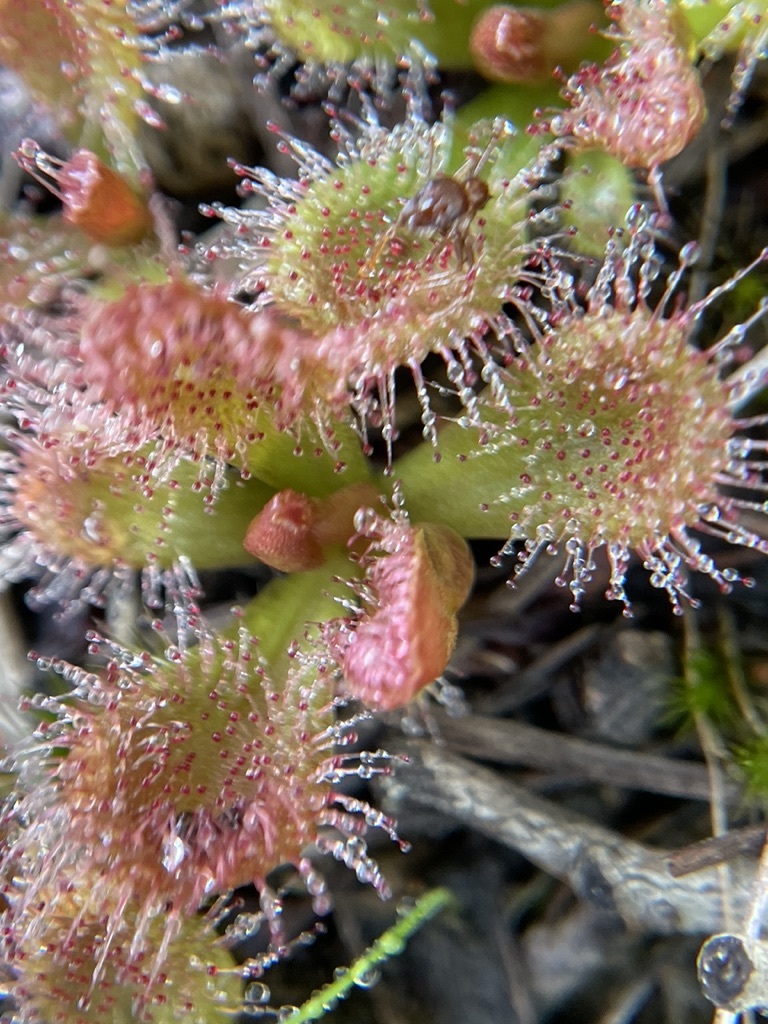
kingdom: Plantae
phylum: Tracheophyta
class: Magnoliopsida
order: Caryophyllales
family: Droseraceae
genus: Drosera
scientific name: Drosera aberrans
